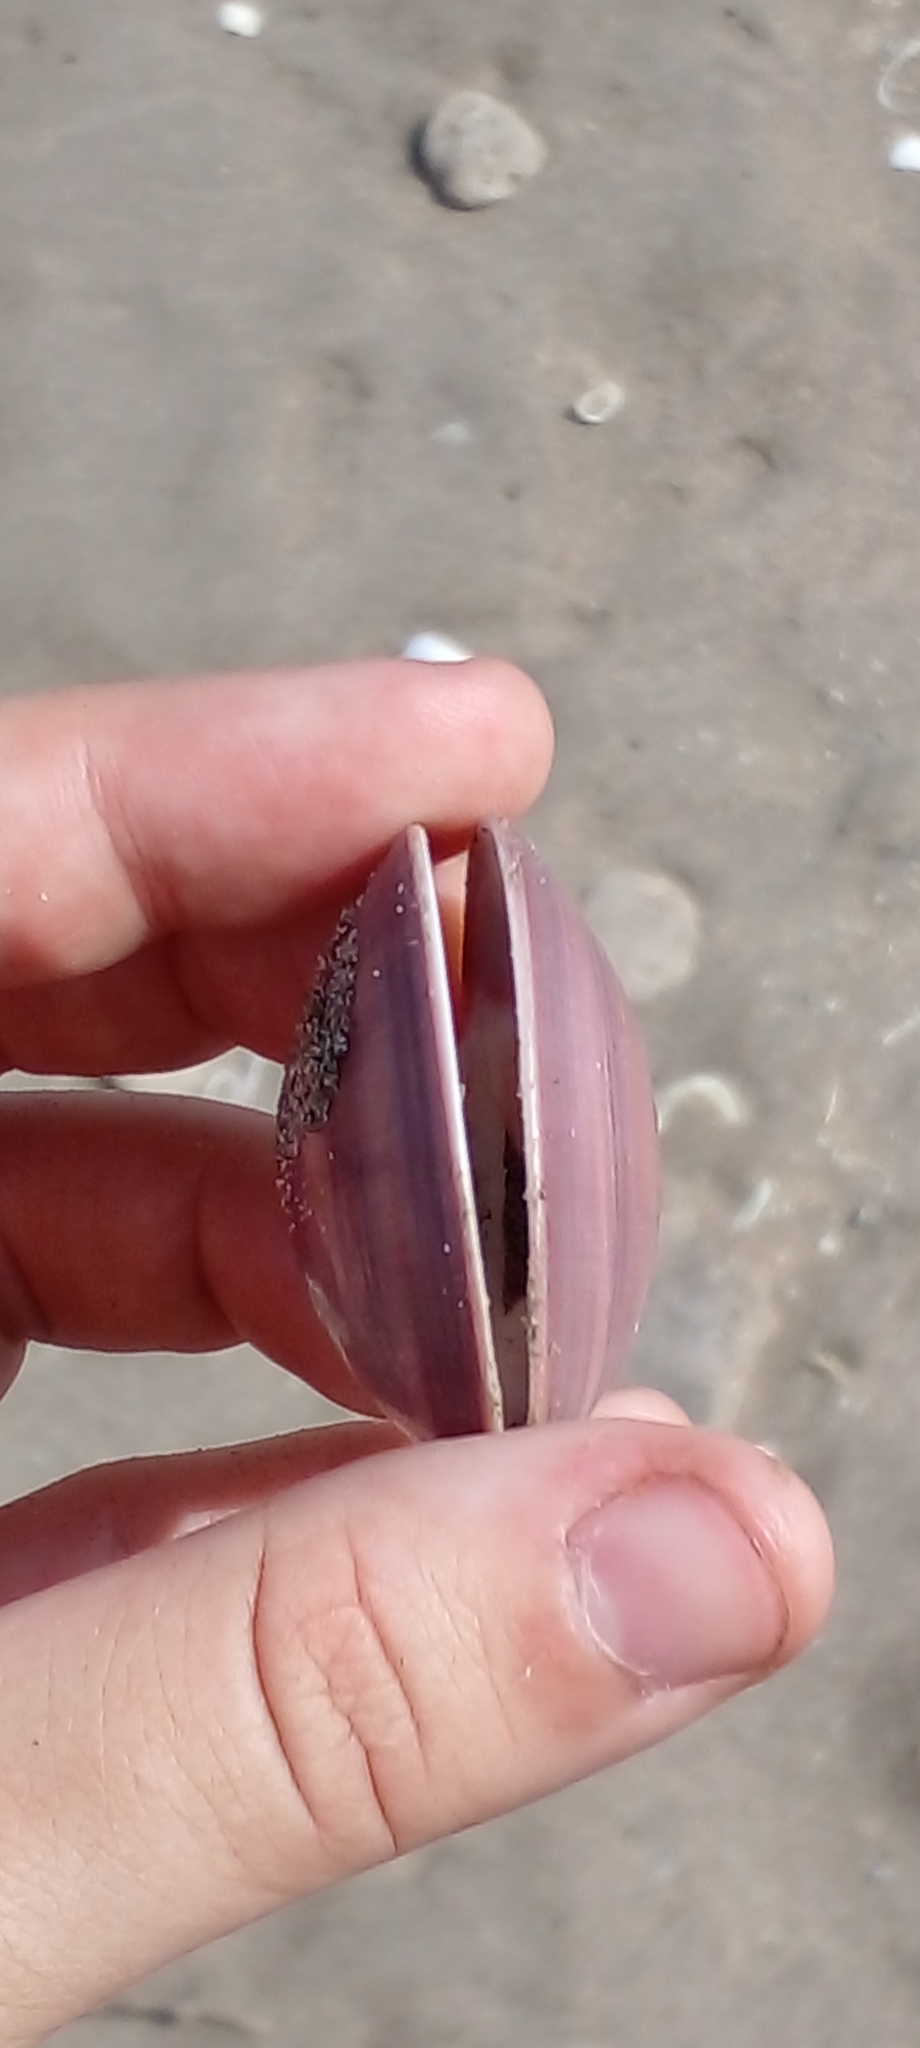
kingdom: Animalia
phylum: Mollusca
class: Bivalvia
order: Venerida
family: Veneridae
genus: Eucallista
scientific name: Eucallista purpurata
